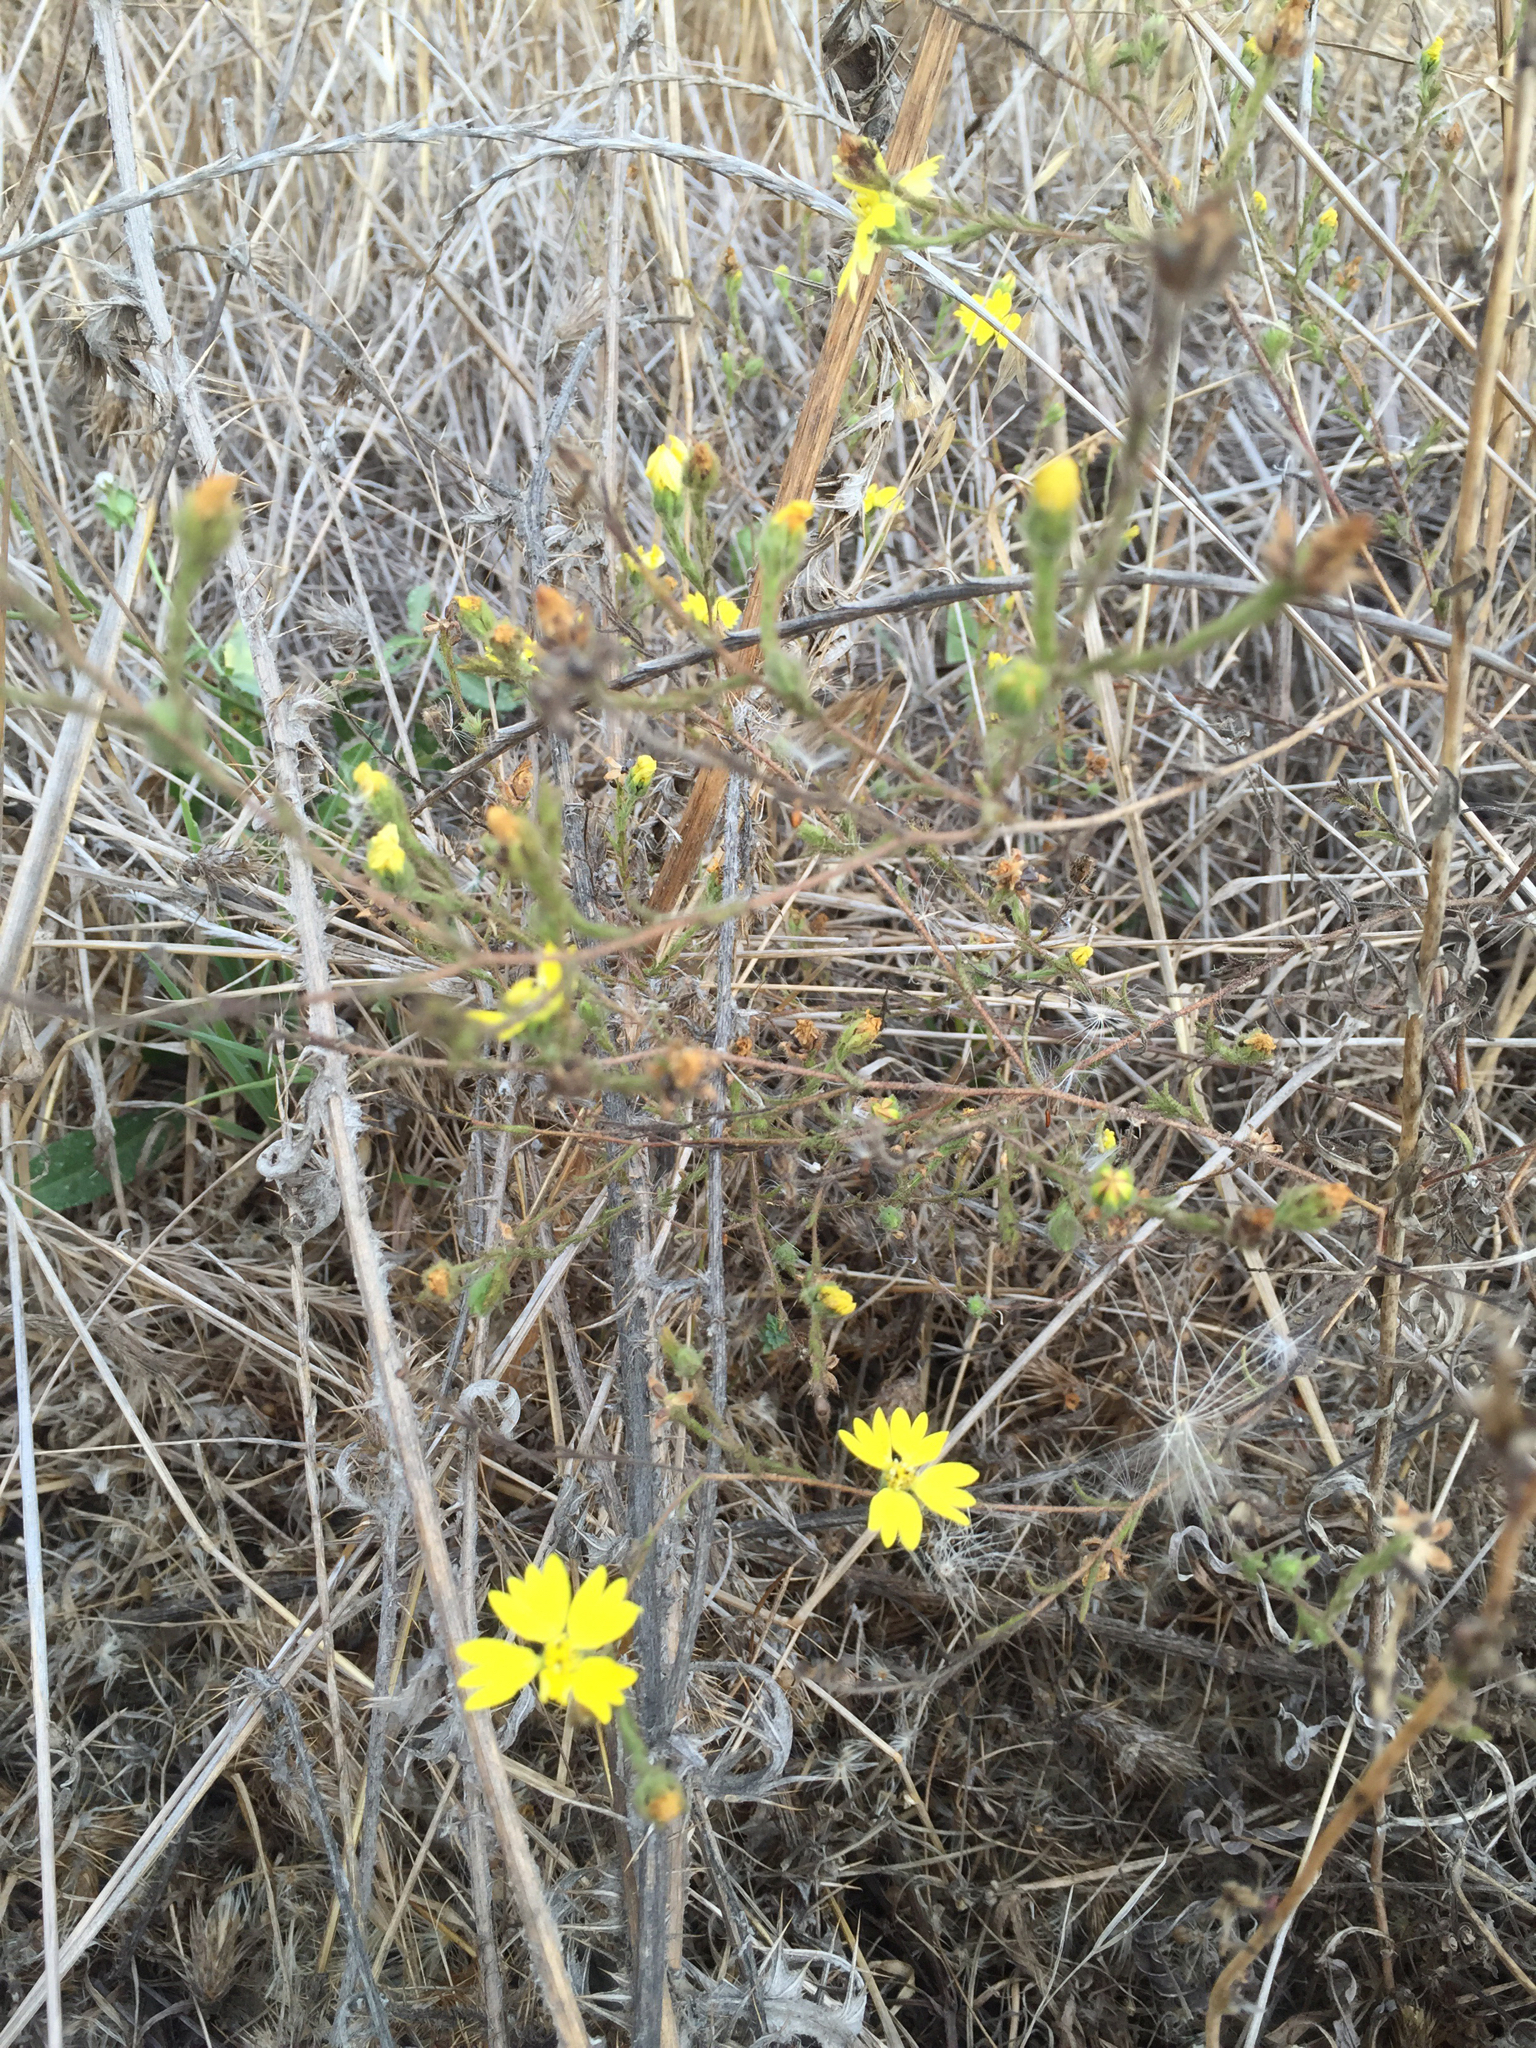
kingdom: Plantae
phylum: Tracheophyta
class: Magnoliopsida
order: Asterales
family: Asteraceae
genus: Hemizonia
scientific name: Hemizonia congesta
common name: Hayfield tarweed
